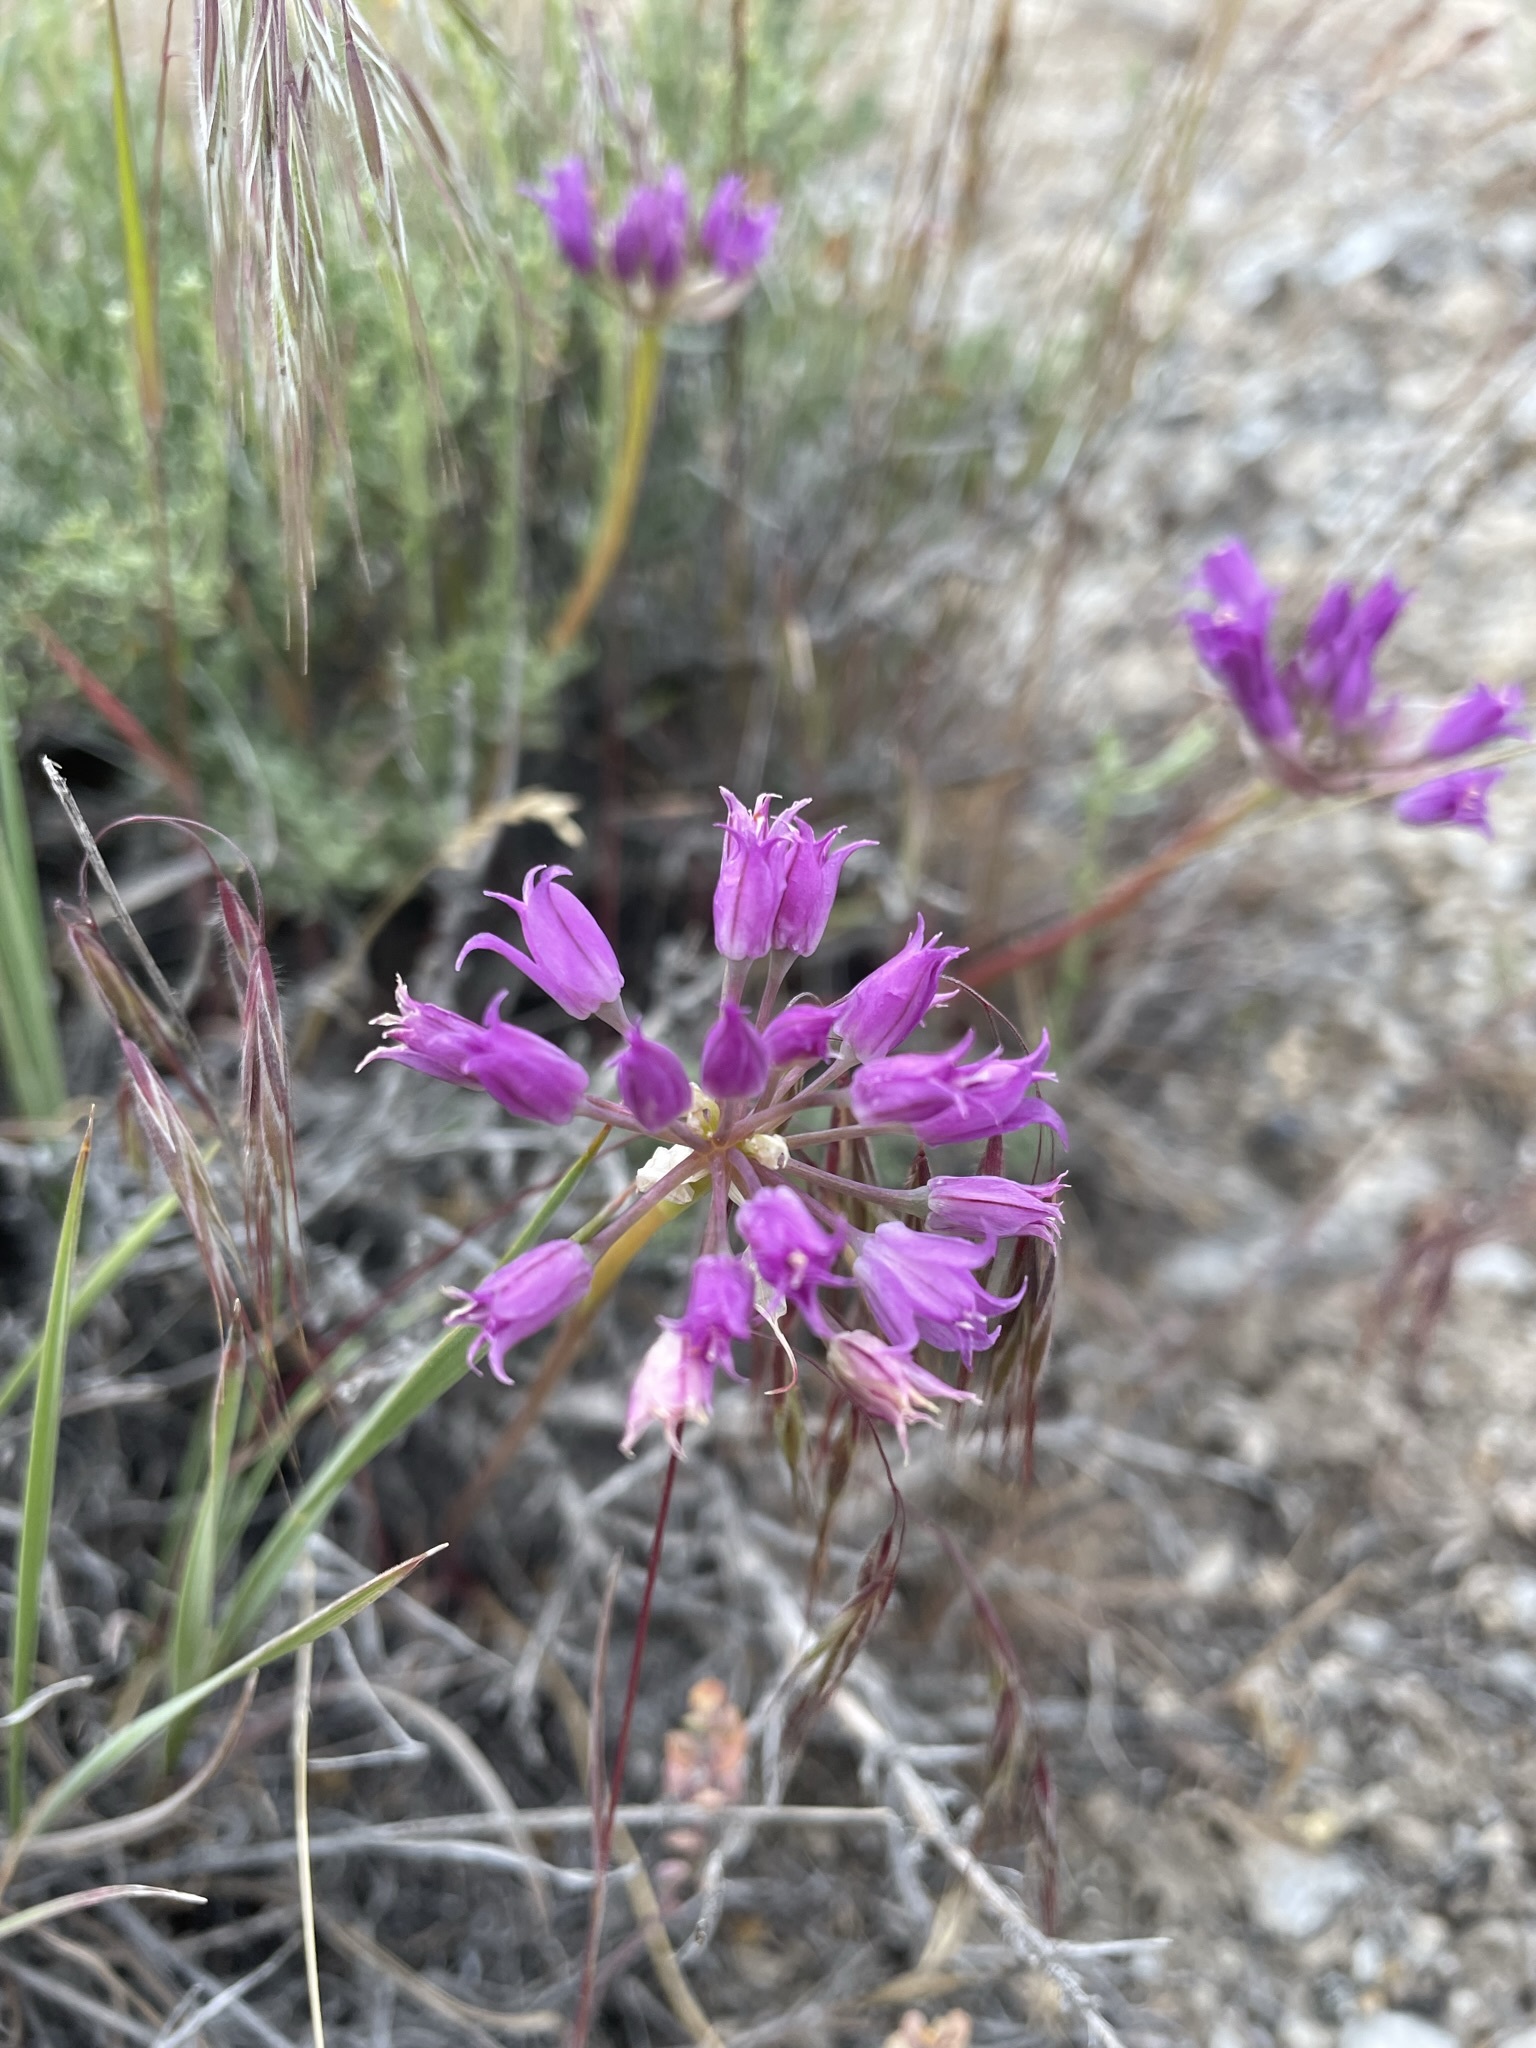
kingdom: Plantae
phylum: Tracheophyta
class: Liliopsida
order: Asparagales
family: Amaryllidaceae
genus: Allium
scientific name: Allium acuminatum
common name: Hooker's onion
